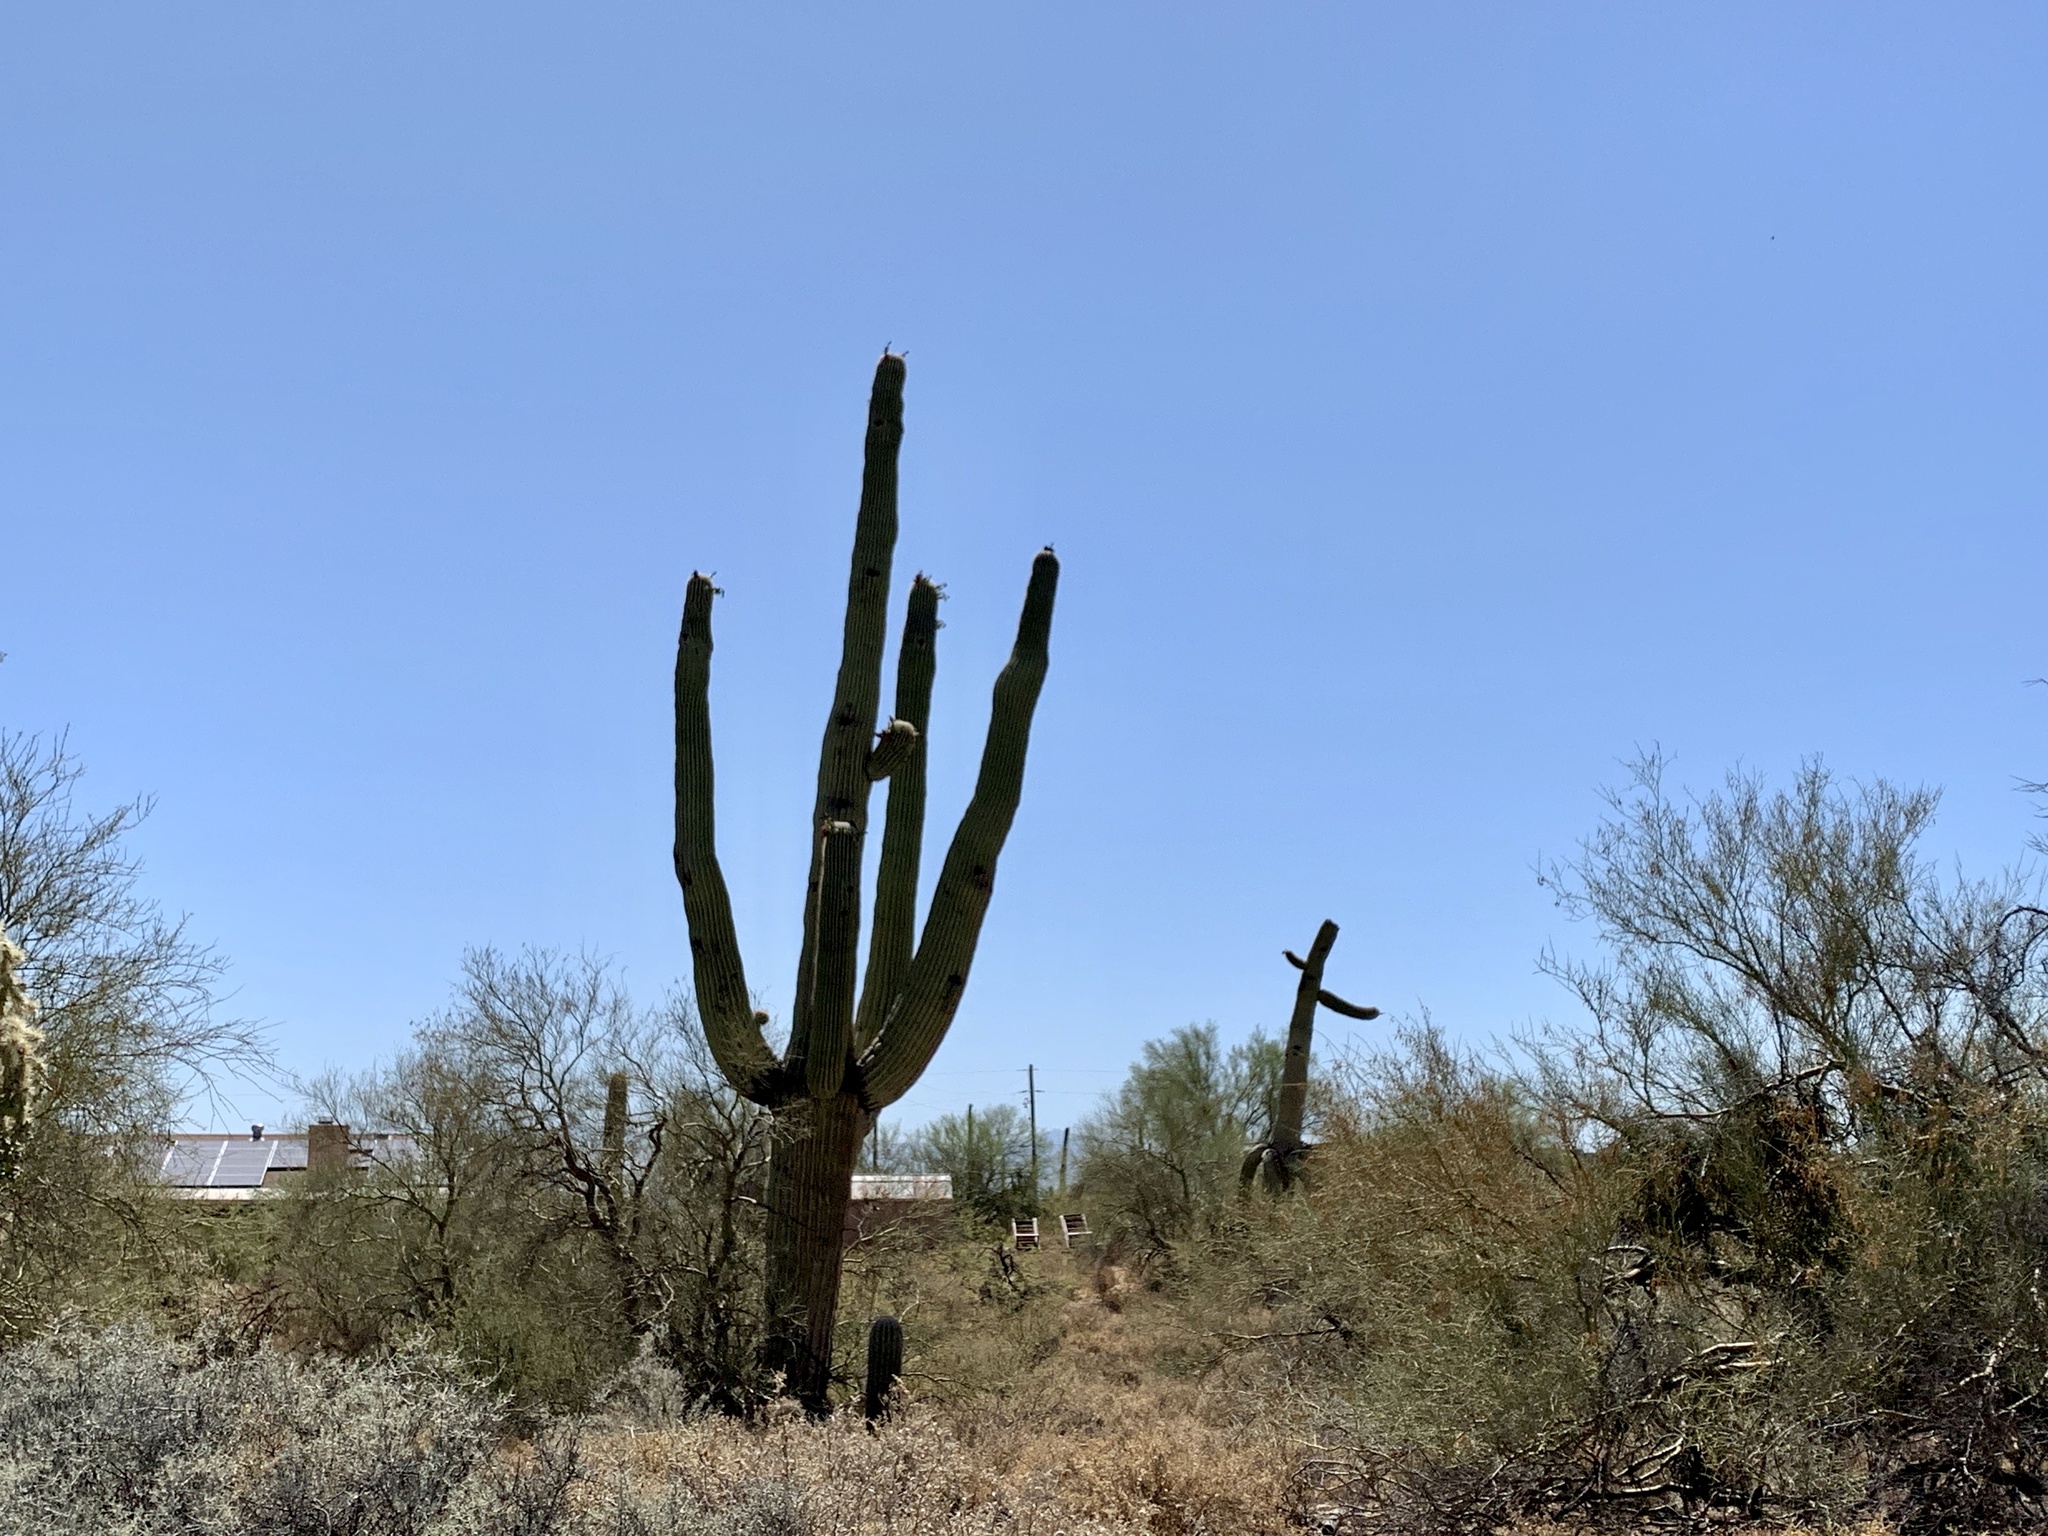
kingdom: Plantae
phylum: Tracheophyta
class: Magnoliopsida
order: Caryophyllales
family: Cactaceae
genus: Carnegiea
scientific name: Carnegiea gigantea
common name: Saguaro
